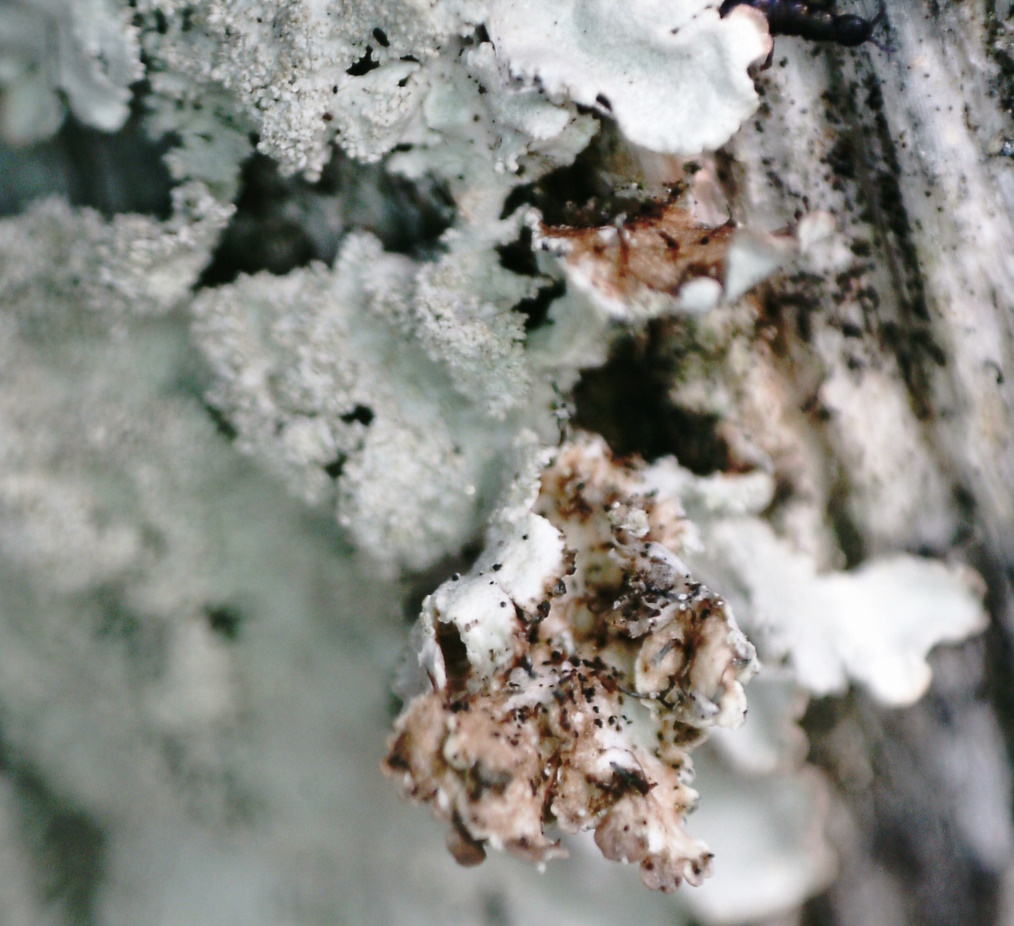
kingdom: Fungi
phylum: Ascomycota
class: Lecanoromycetes
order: Lecanorales
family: Parmeliaceae
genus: Imshaugia
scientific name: Imshaugia aleurites
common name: Salted starburst lichen
